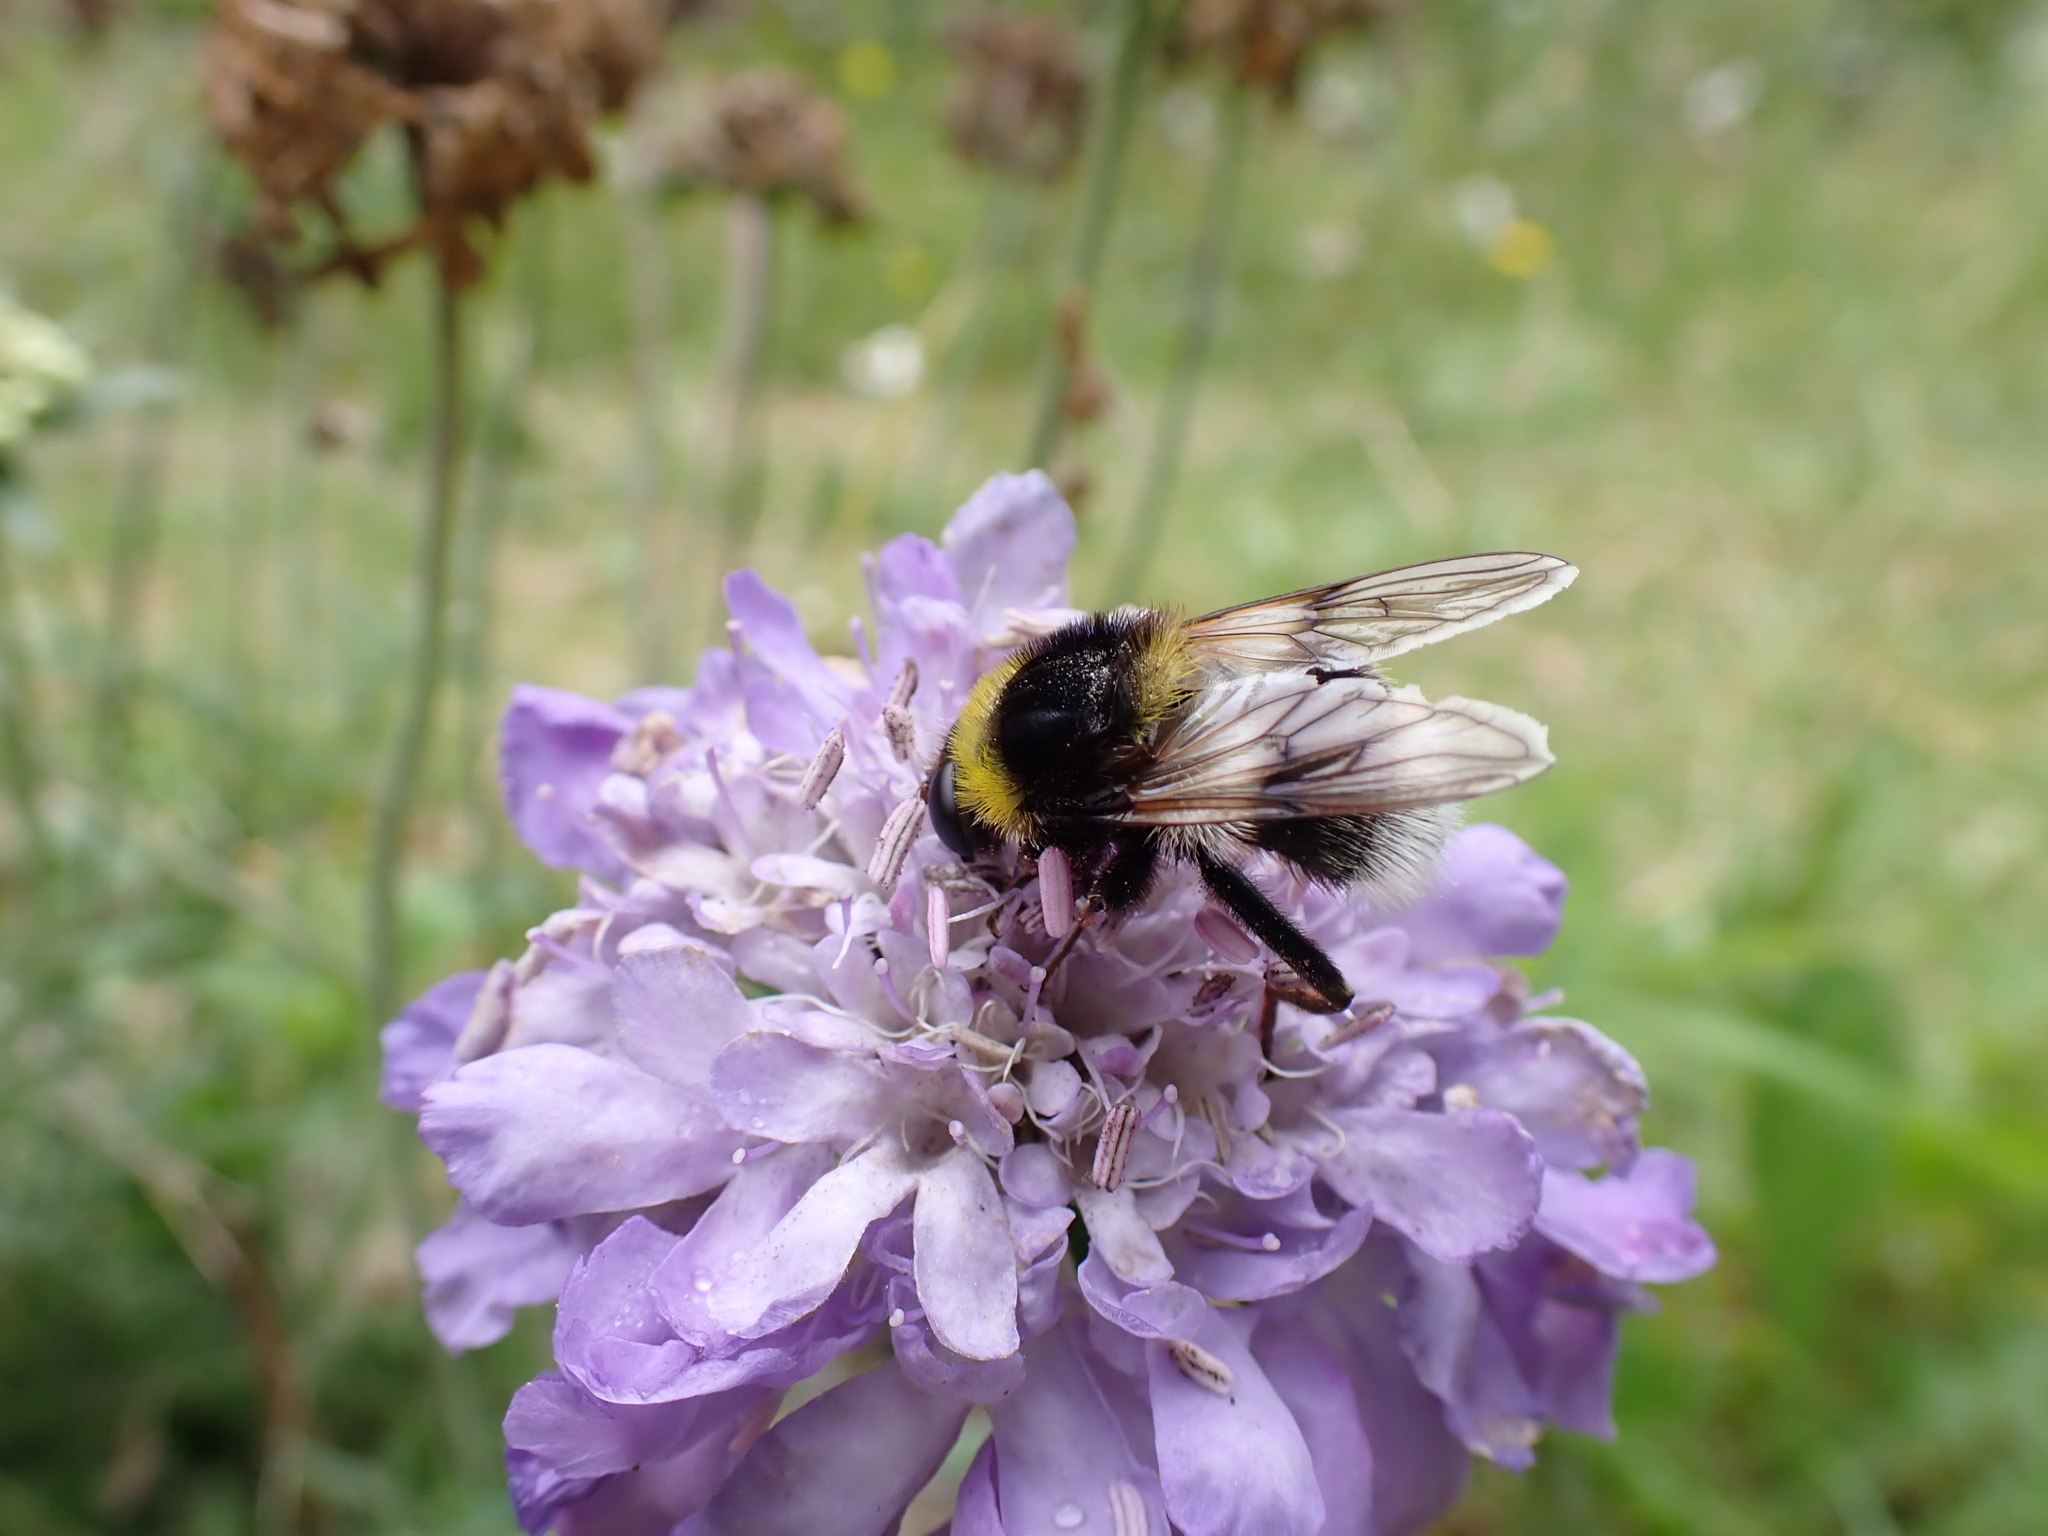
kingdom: Animalia
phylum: Arthropoda
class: Insecta
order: Diptera
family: Syrphidae
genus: Sericomyia
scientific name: Sericomyia bombiformis
